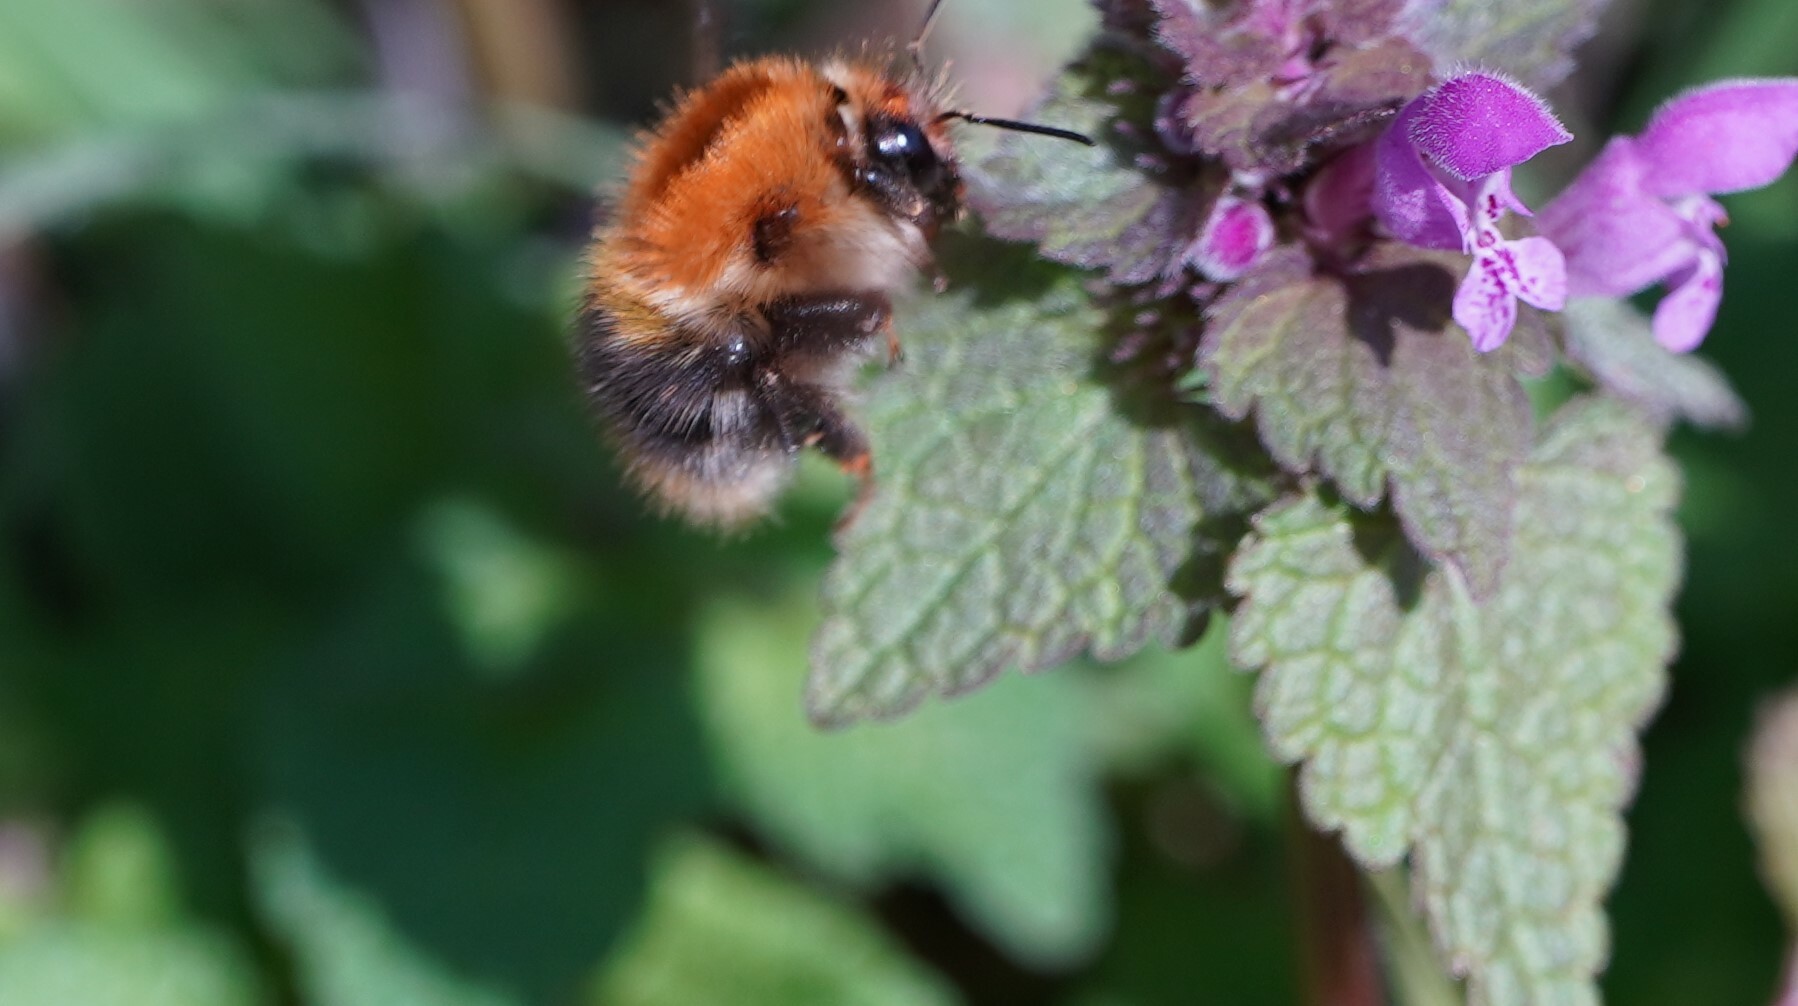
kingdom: Animalia
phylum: Arthropoda
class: Insecta
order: Hymenoptera
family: Apidae
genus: Bombus
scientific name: Bombus pascuorum
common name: Common carder bee
